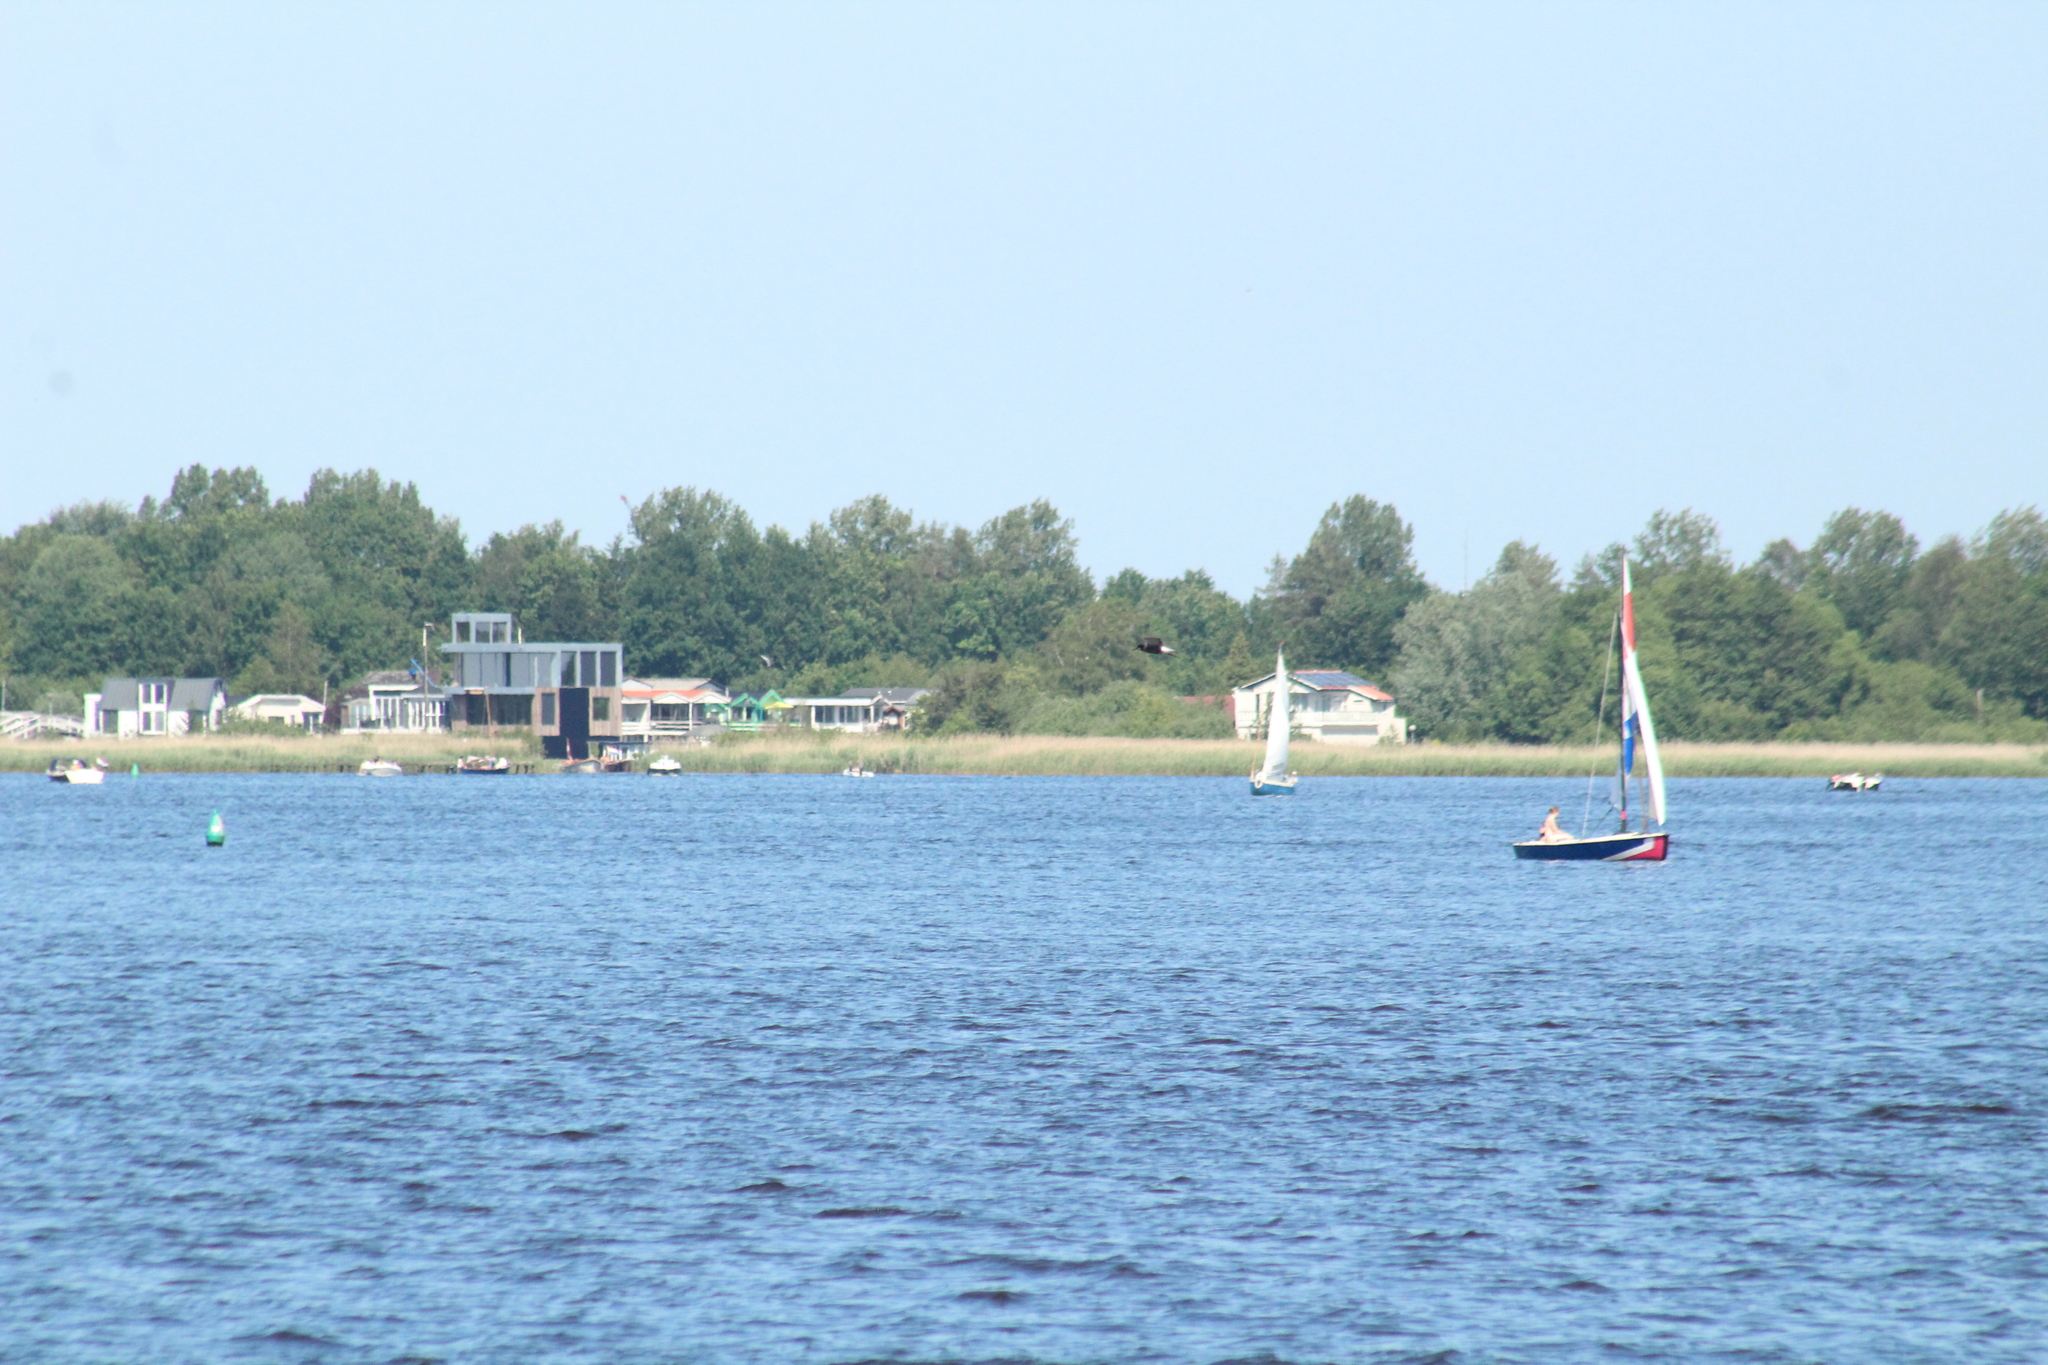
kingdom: Animalia
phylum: Chordata
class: Aves
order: Charadriiformes
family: Laridae
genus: Chlidonias
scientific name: Chlidonias niger
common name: Black tern
